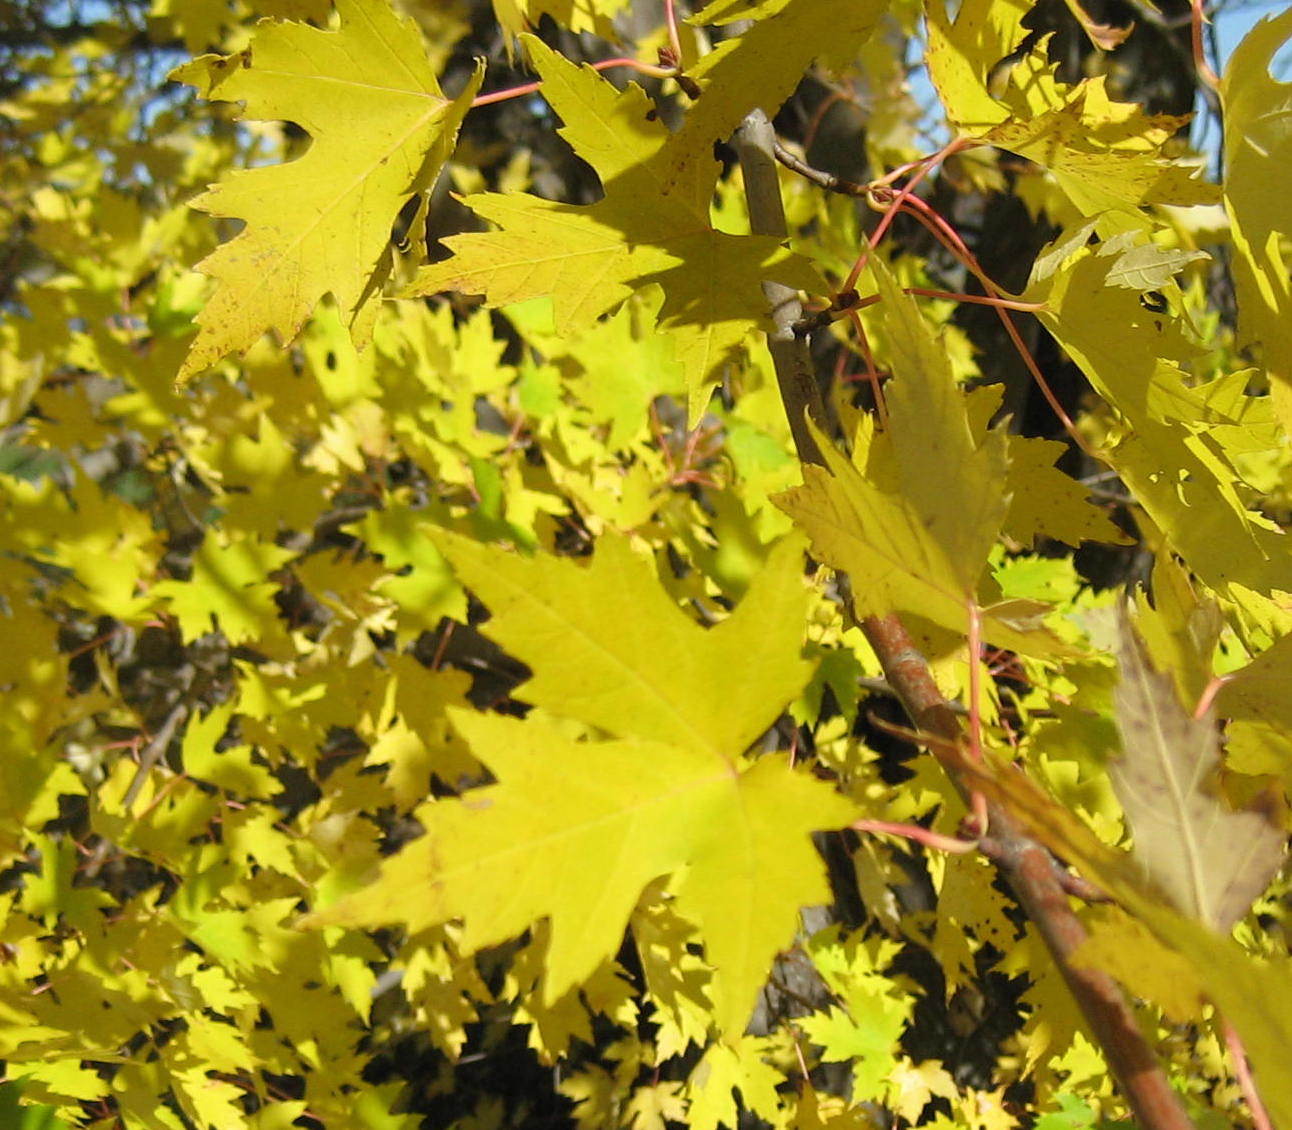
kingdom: Plantae
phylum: Tracheophyta
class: Magnoliopsida
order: Sapindales
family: Sapindaceae
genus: Acer
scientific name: Acer saccharinum
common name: Silver maple
